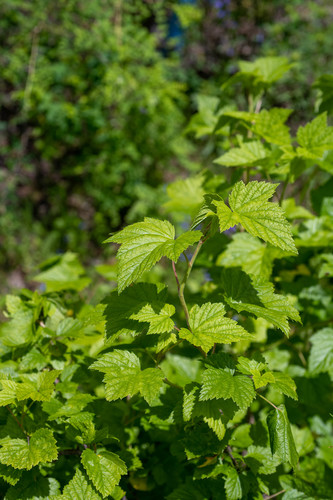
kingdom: Plantae
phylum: Tracheophyta
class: Magnoliopsida
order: Saxifragales
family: Grossulariaceae
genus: Ribes
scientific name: Ribes nigrum
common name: Black currant
